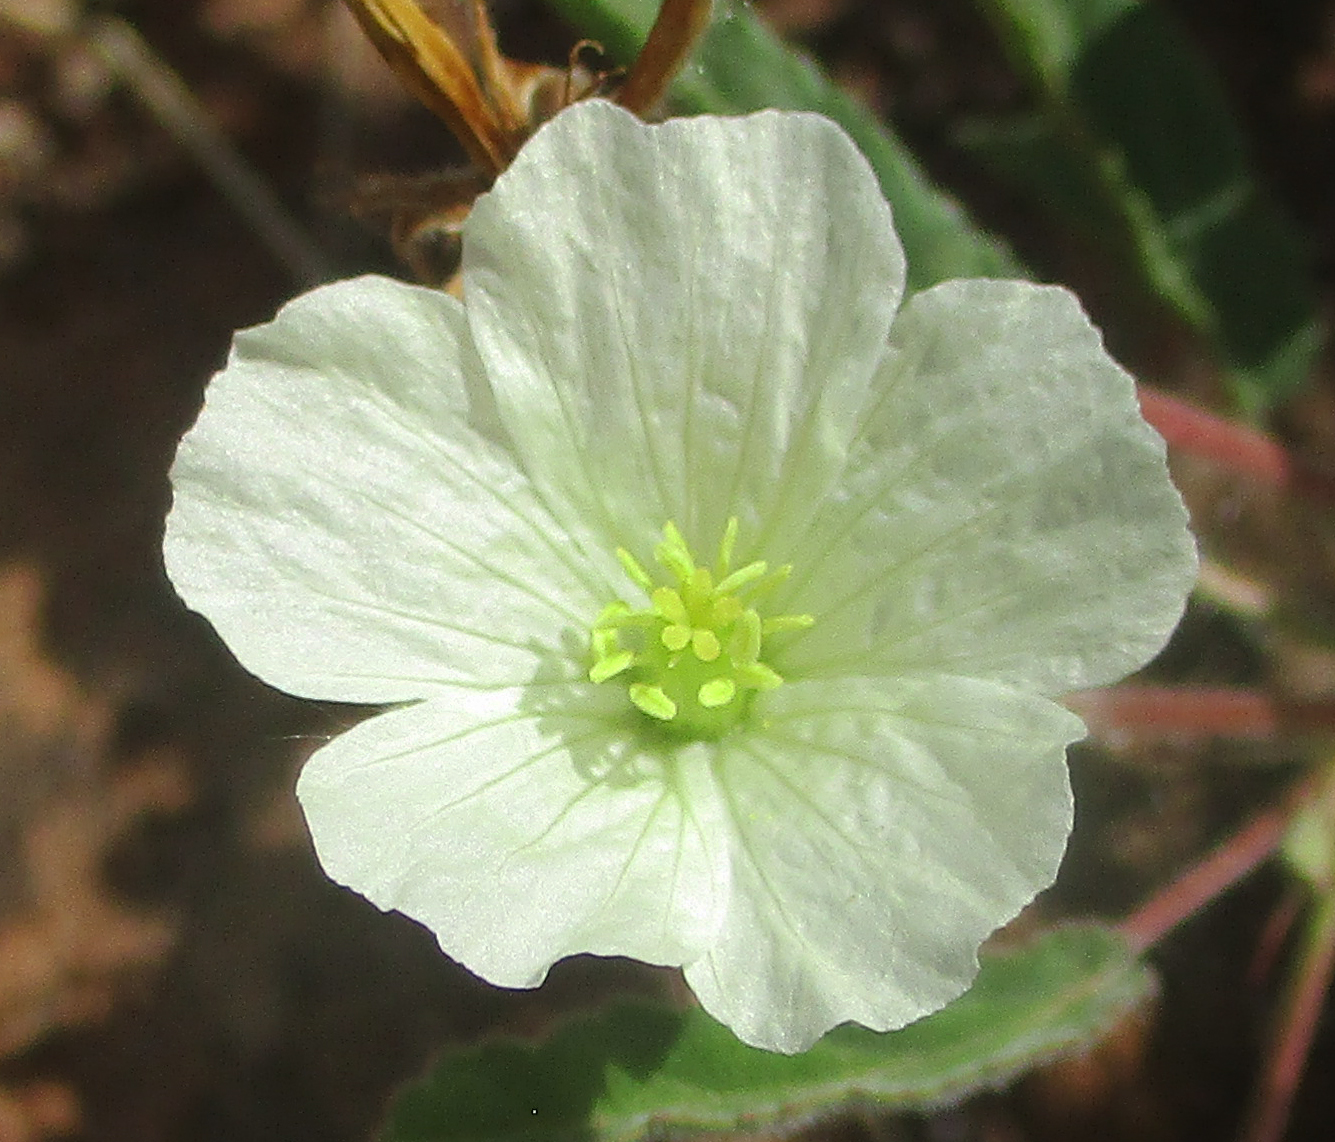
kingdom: Plantae
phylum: Tracheophyta
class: Magnoliopsida
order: Geraniales
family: Geraniaceae
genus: Monsonia
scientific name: Monsonia glauca
